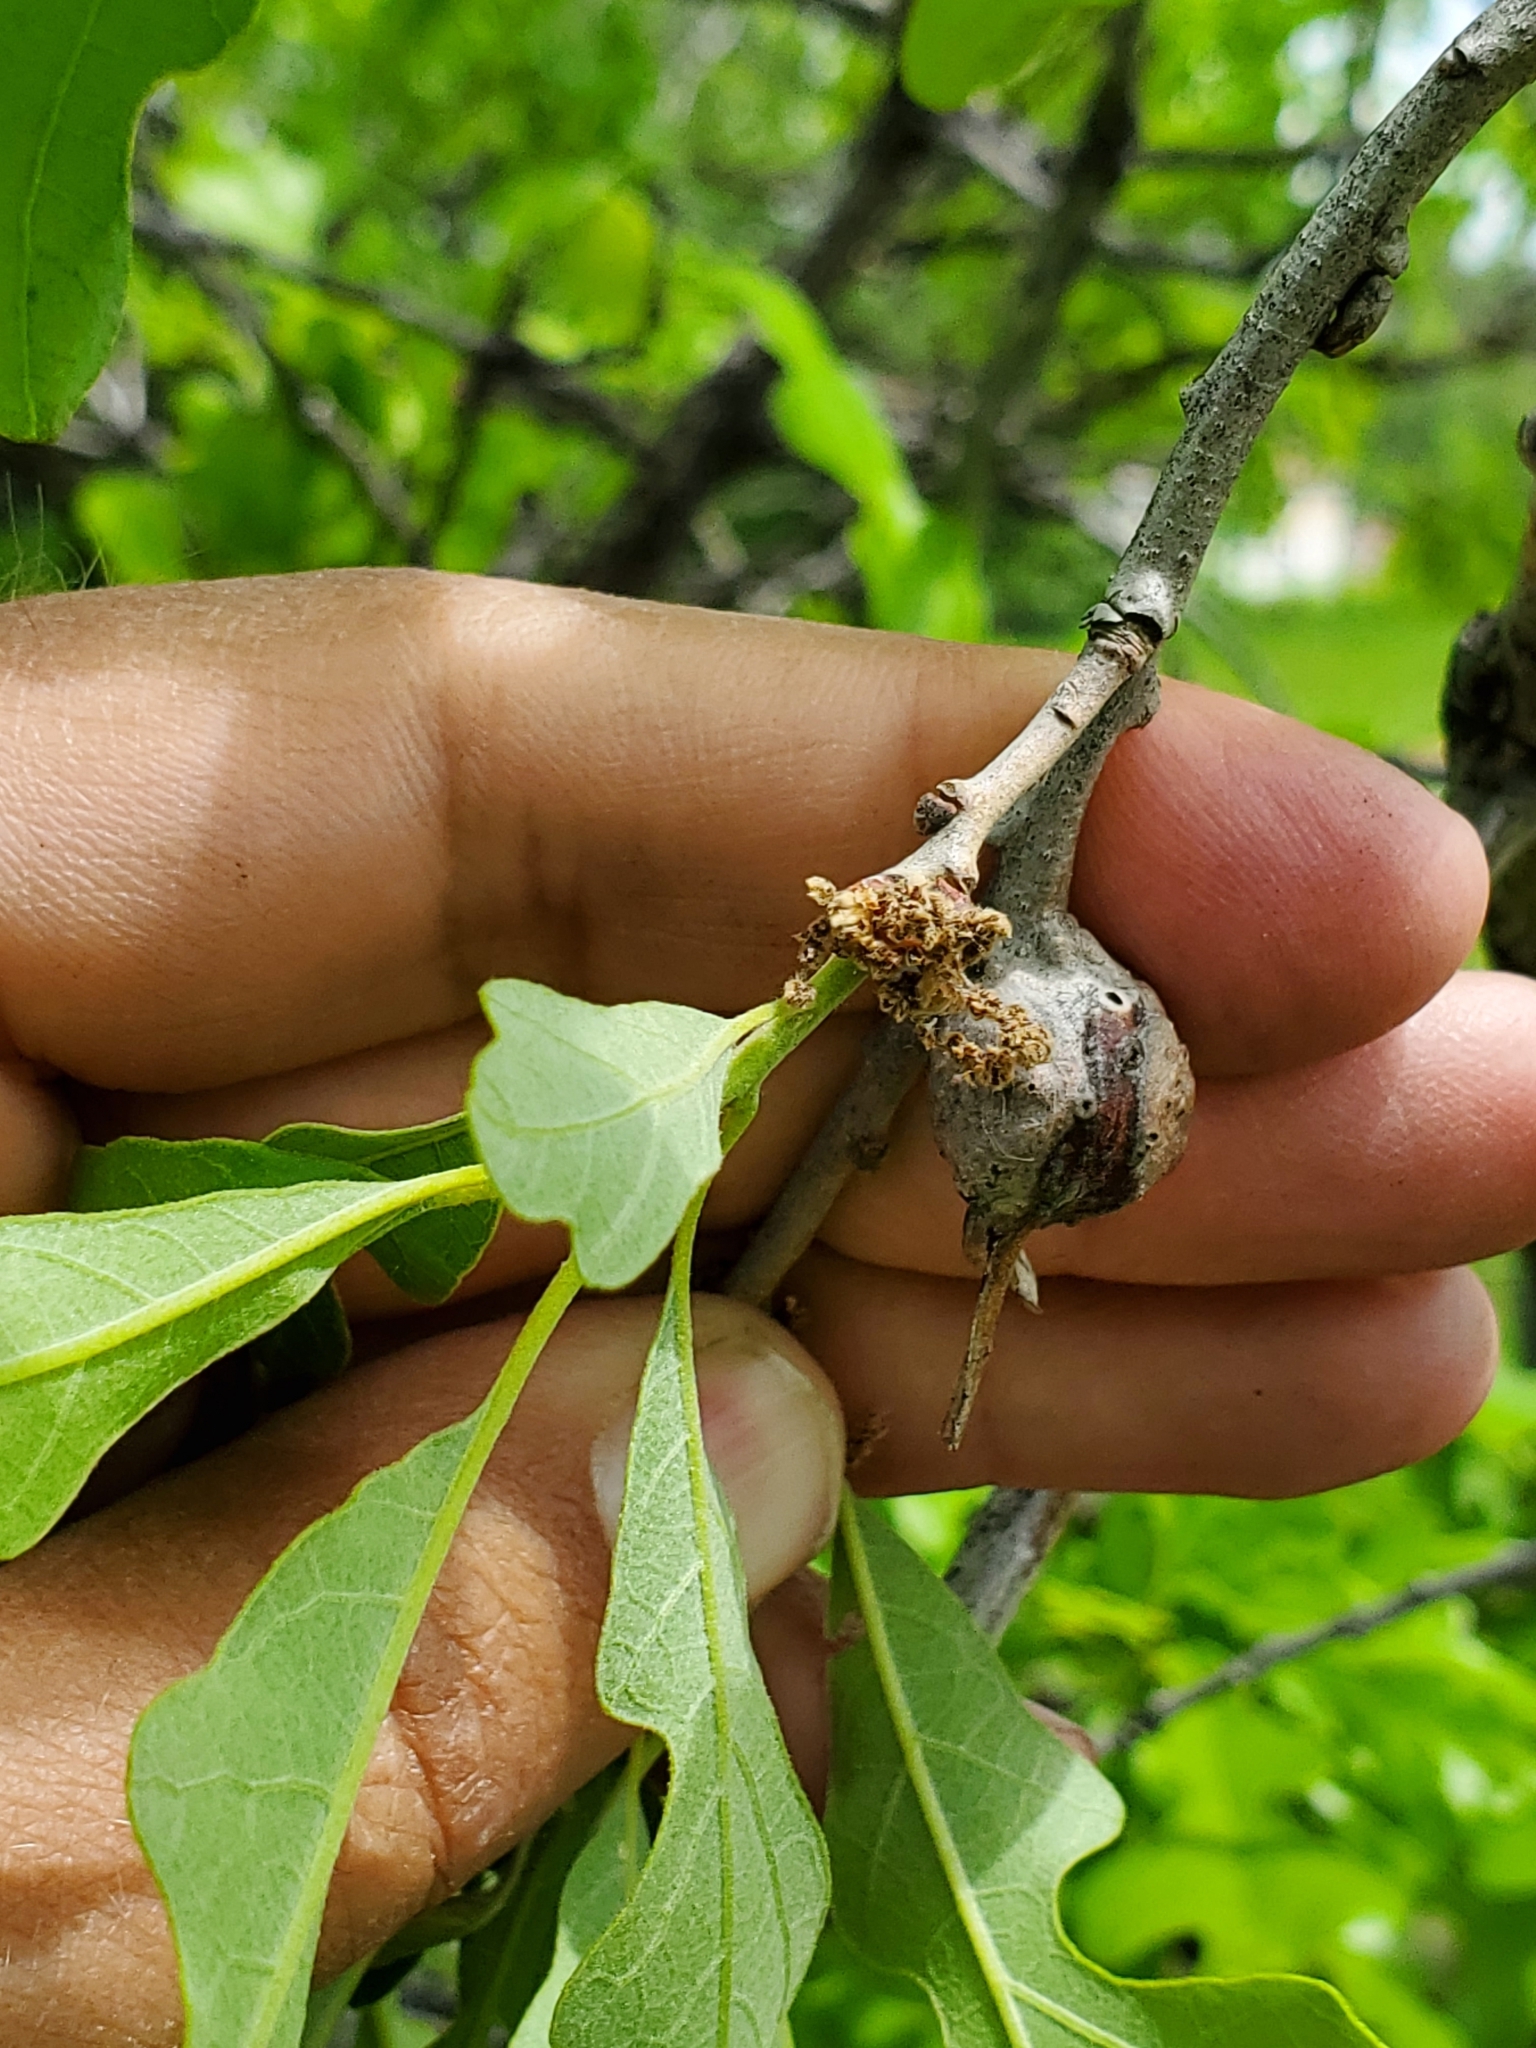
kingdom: Animalia
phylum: Arthropoda
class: Insecta
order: Hymenoptera
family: Cynipidae
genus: Andricus
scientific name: Andricus
